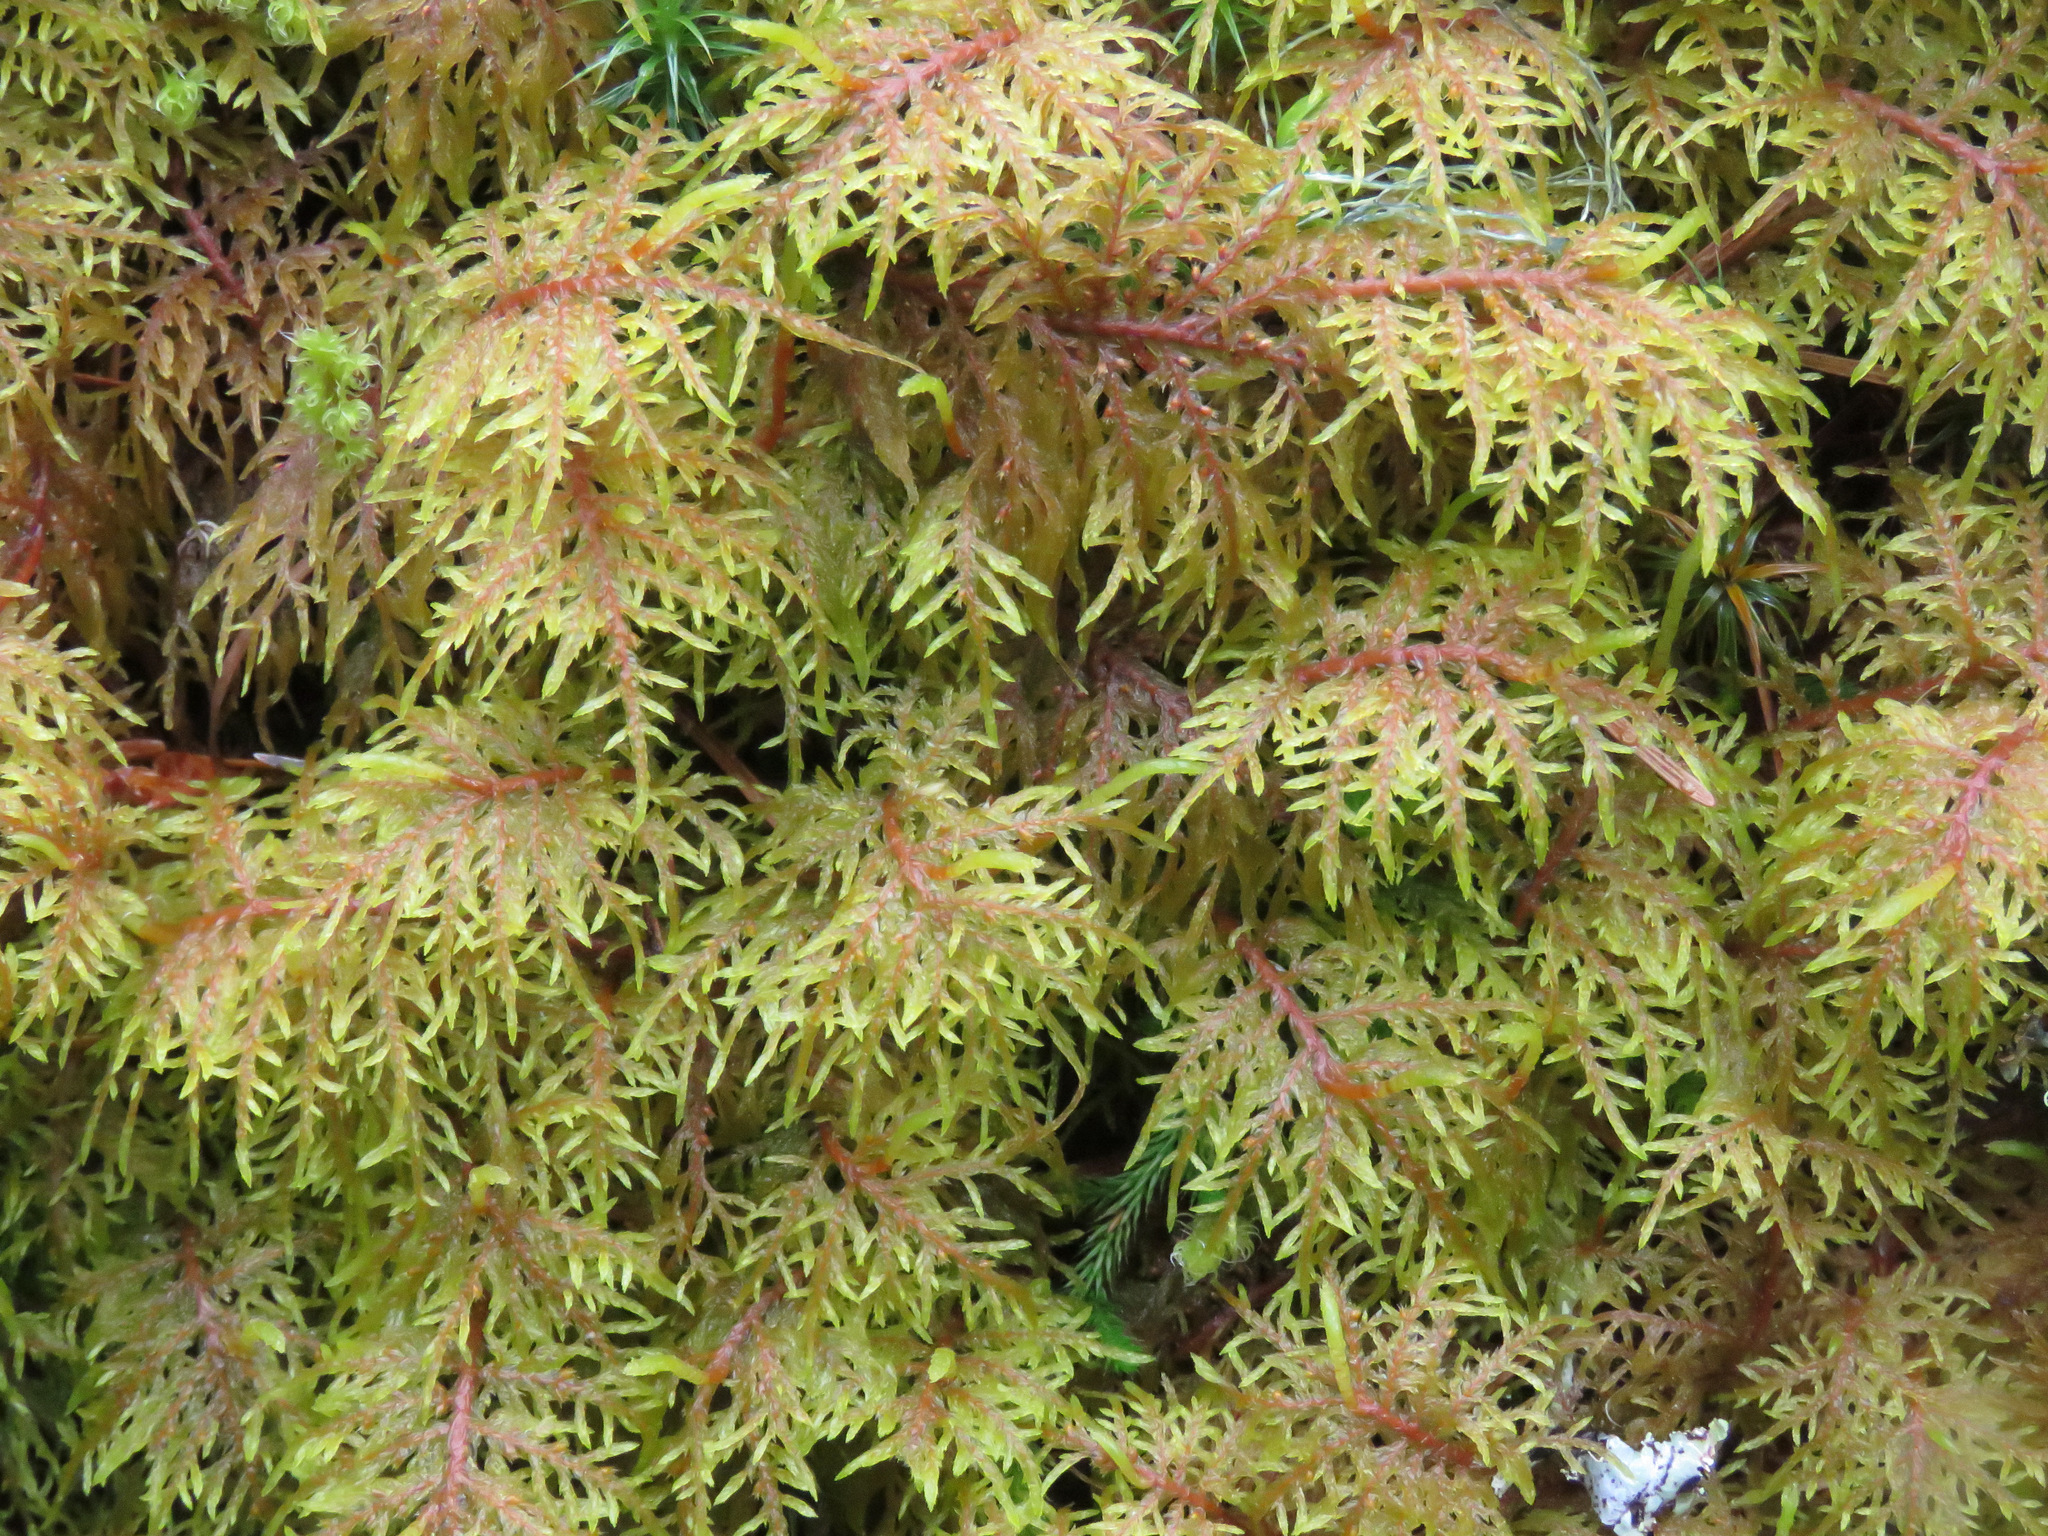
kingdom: Plantae
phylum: Bryophyta
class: Bryopsida
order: Hypnales
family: Hylocomiaceae
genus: Hylocomium
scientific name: Hylocomium splendens
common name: Stairstep moss
